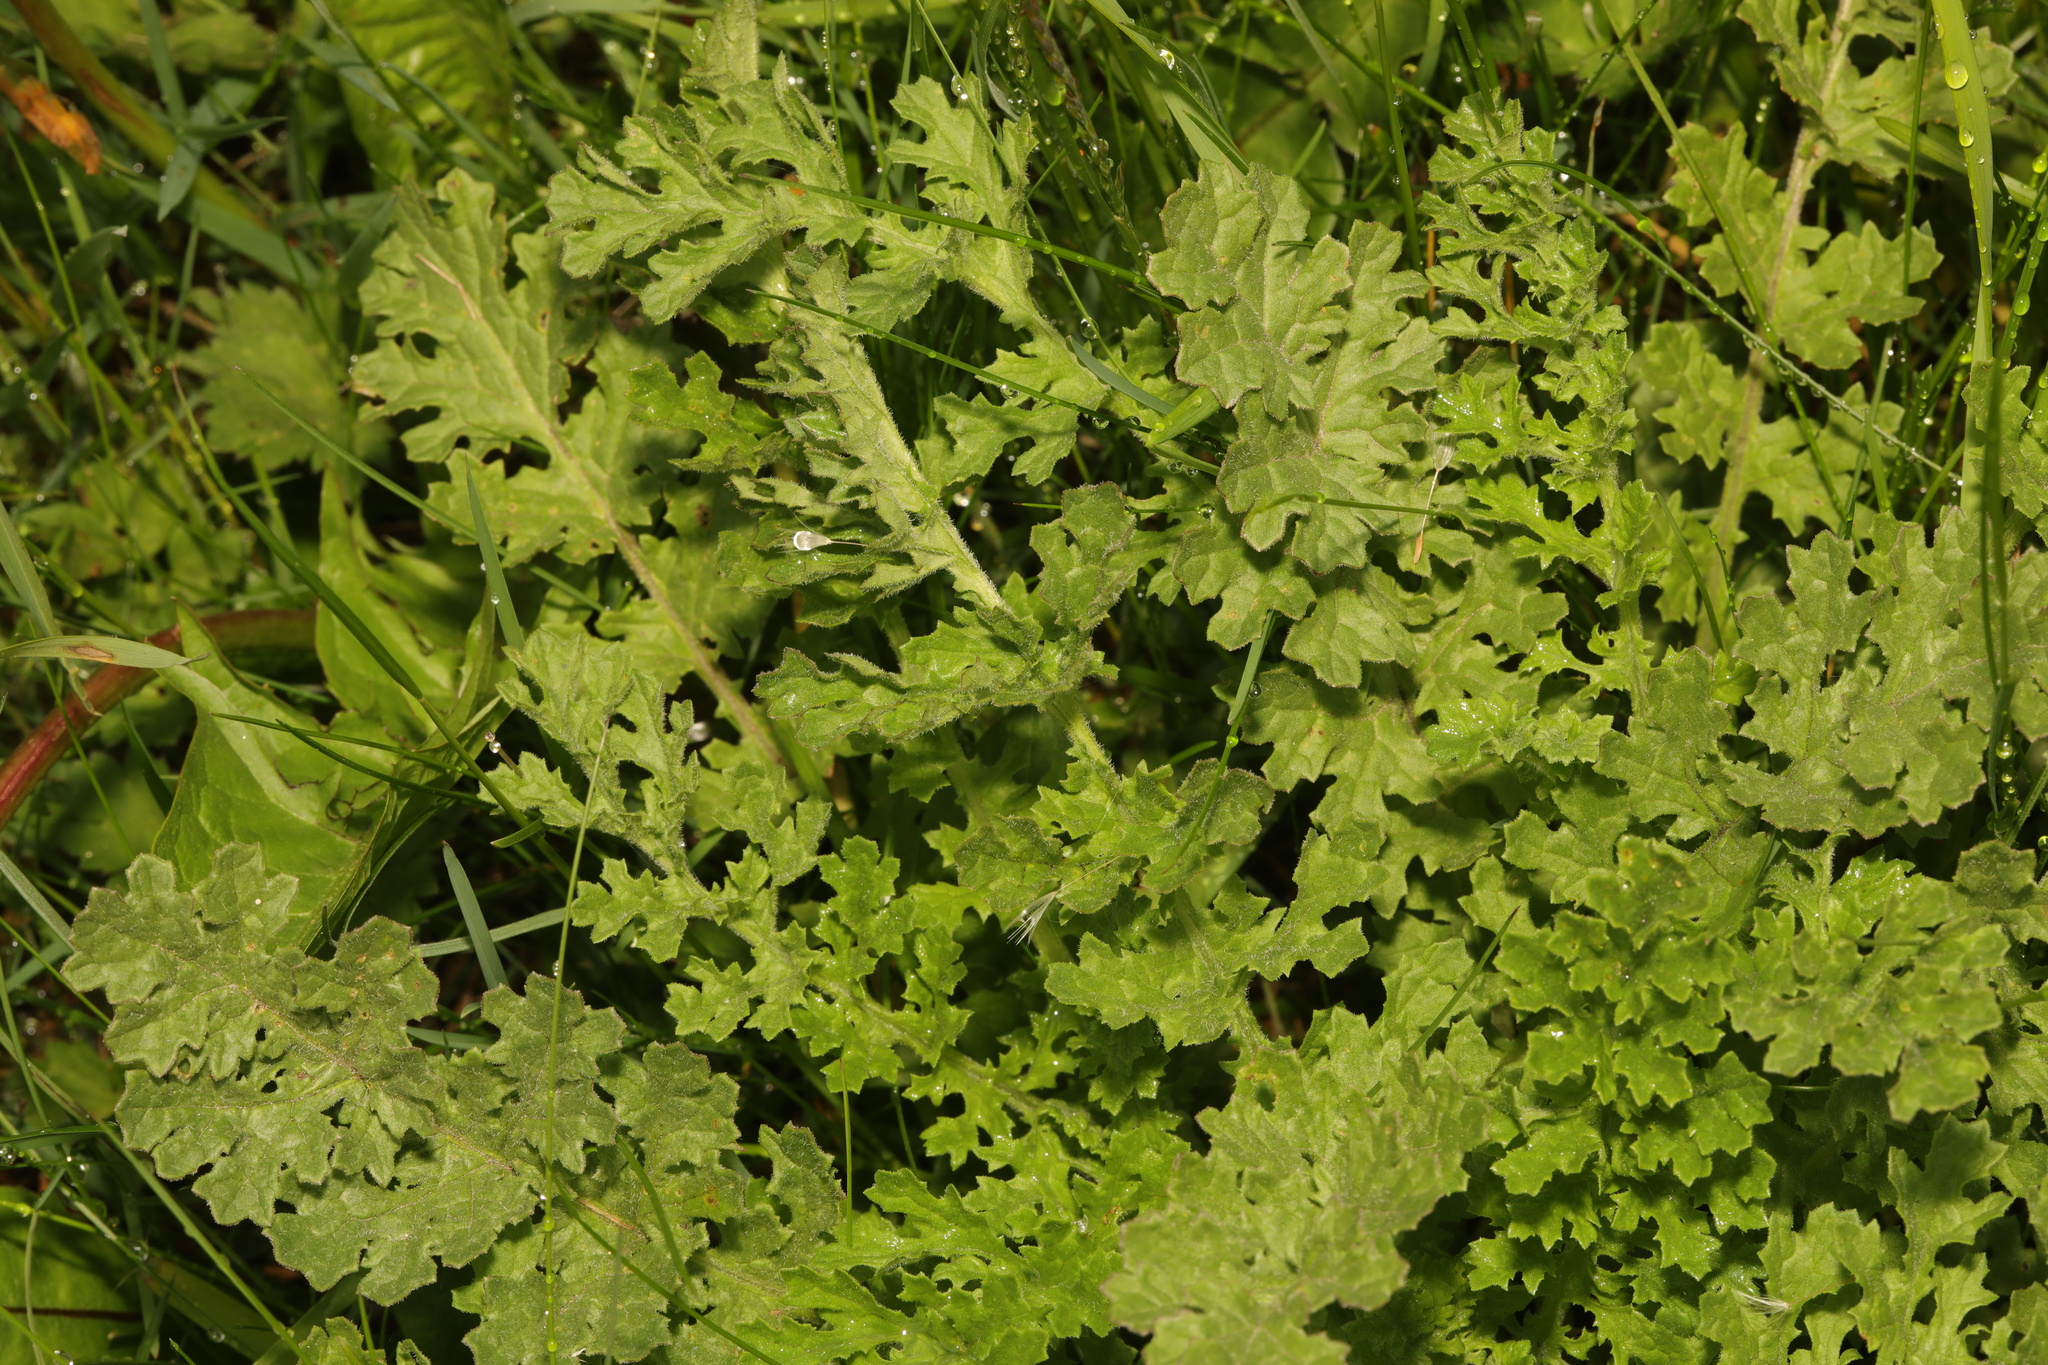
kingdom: Plantae
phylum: Tracheophyta
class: Magnoliopsida
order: Asterales
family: Asteraceae
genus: Jacobaea
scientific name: Jacobaea vulgaris
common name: Stinking willie
